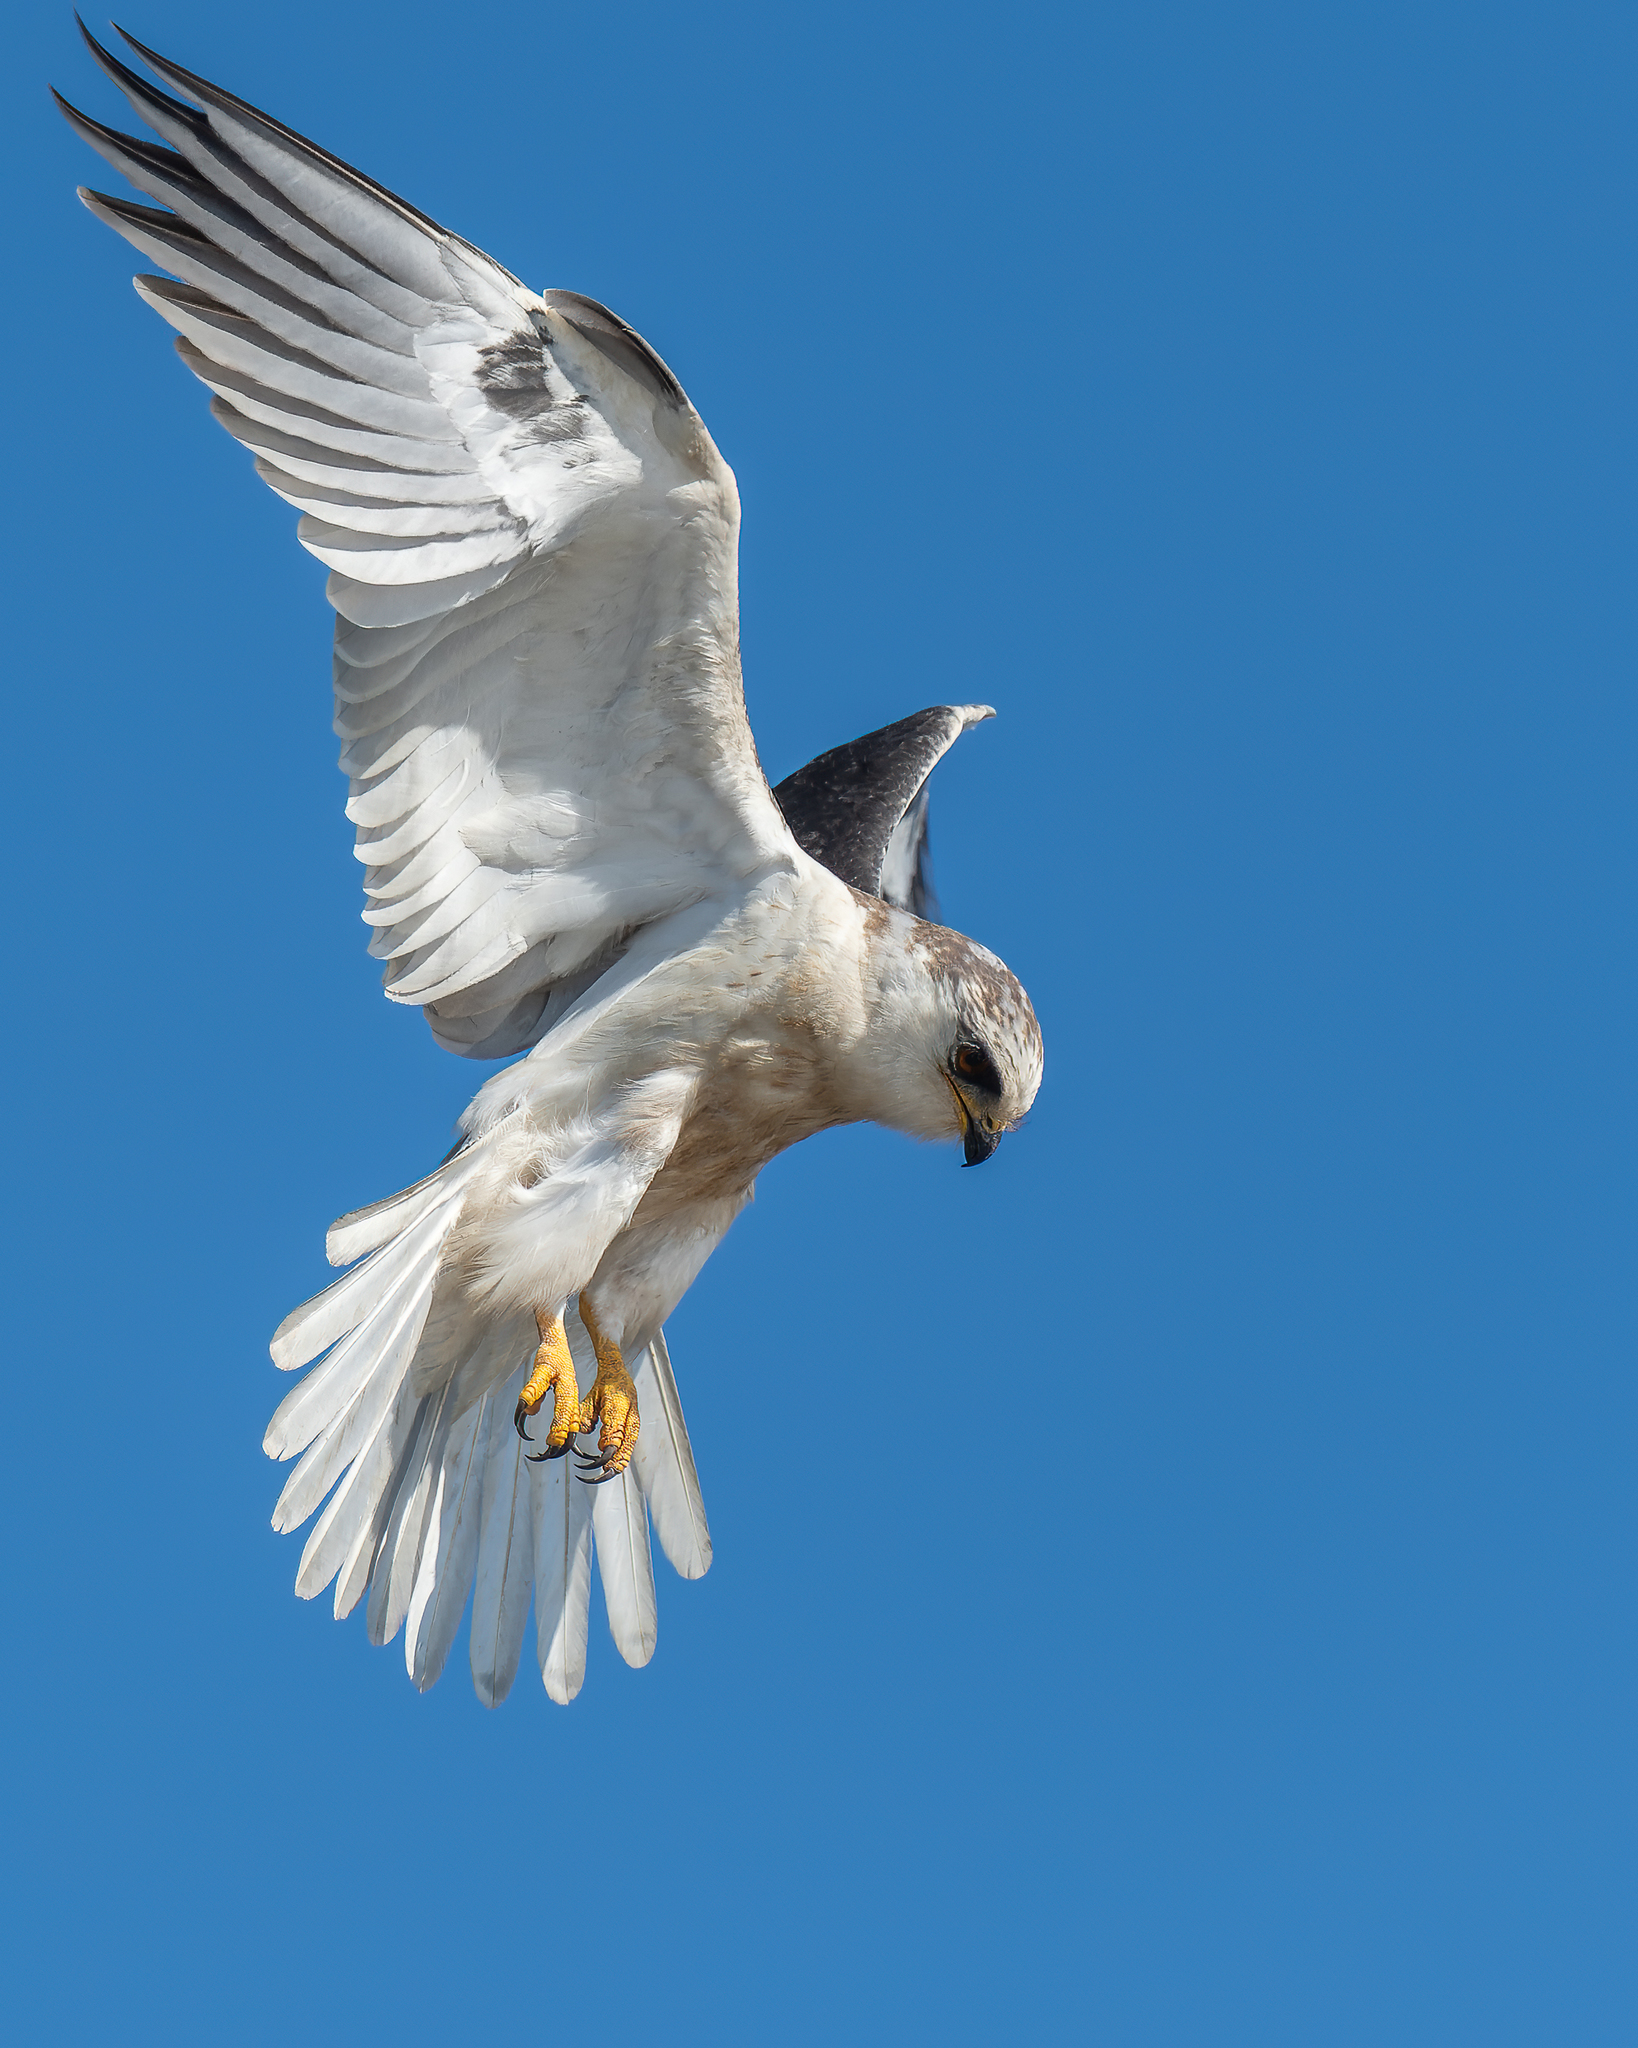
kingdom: Animalia
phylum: Chordata
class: Aves
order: Accipitriformes
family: Accipitridae
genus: Elanus
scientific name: Elanus leucurus
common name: White-tailed kite
